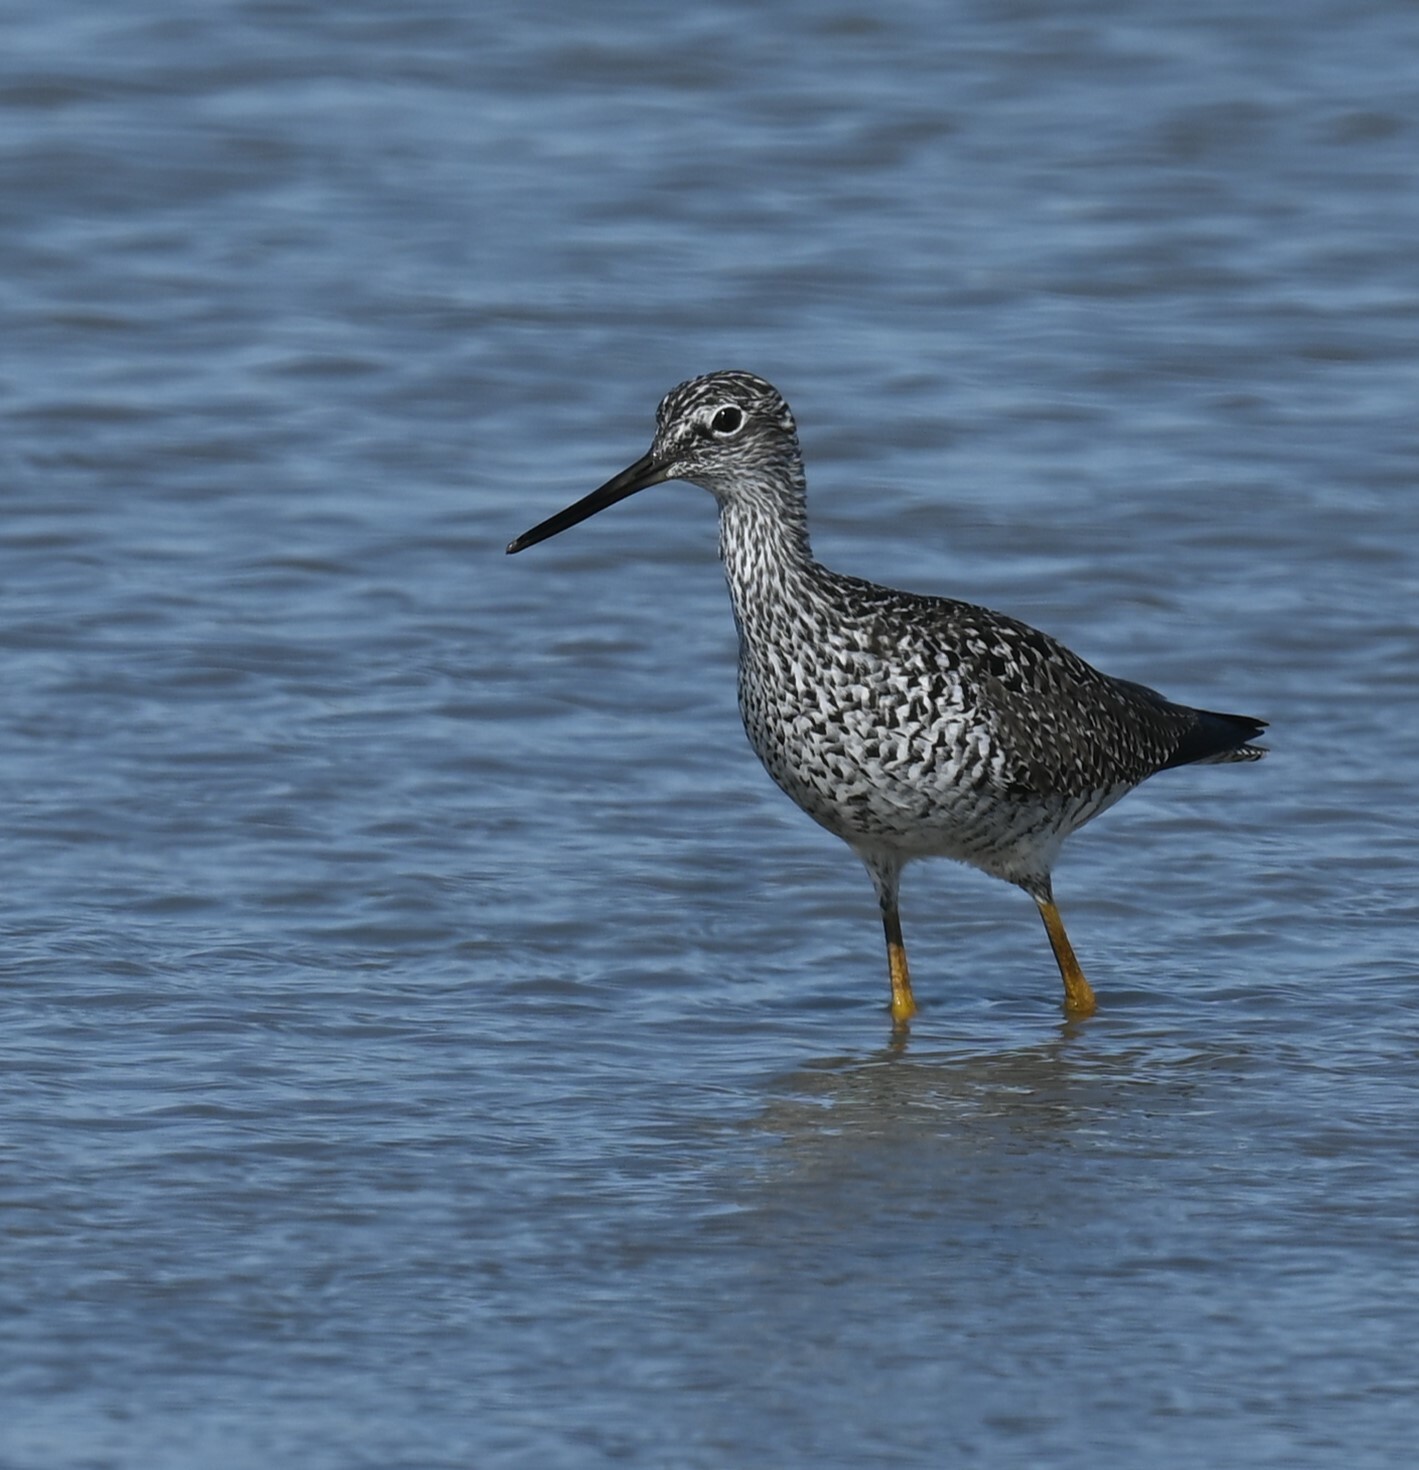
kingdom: Animalia
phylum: Chordata
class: Aves
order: Charadriiformes
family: Scolopacidae
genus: Tringa
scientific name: Tringa melanoleuca
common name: Greater yellowlegs
